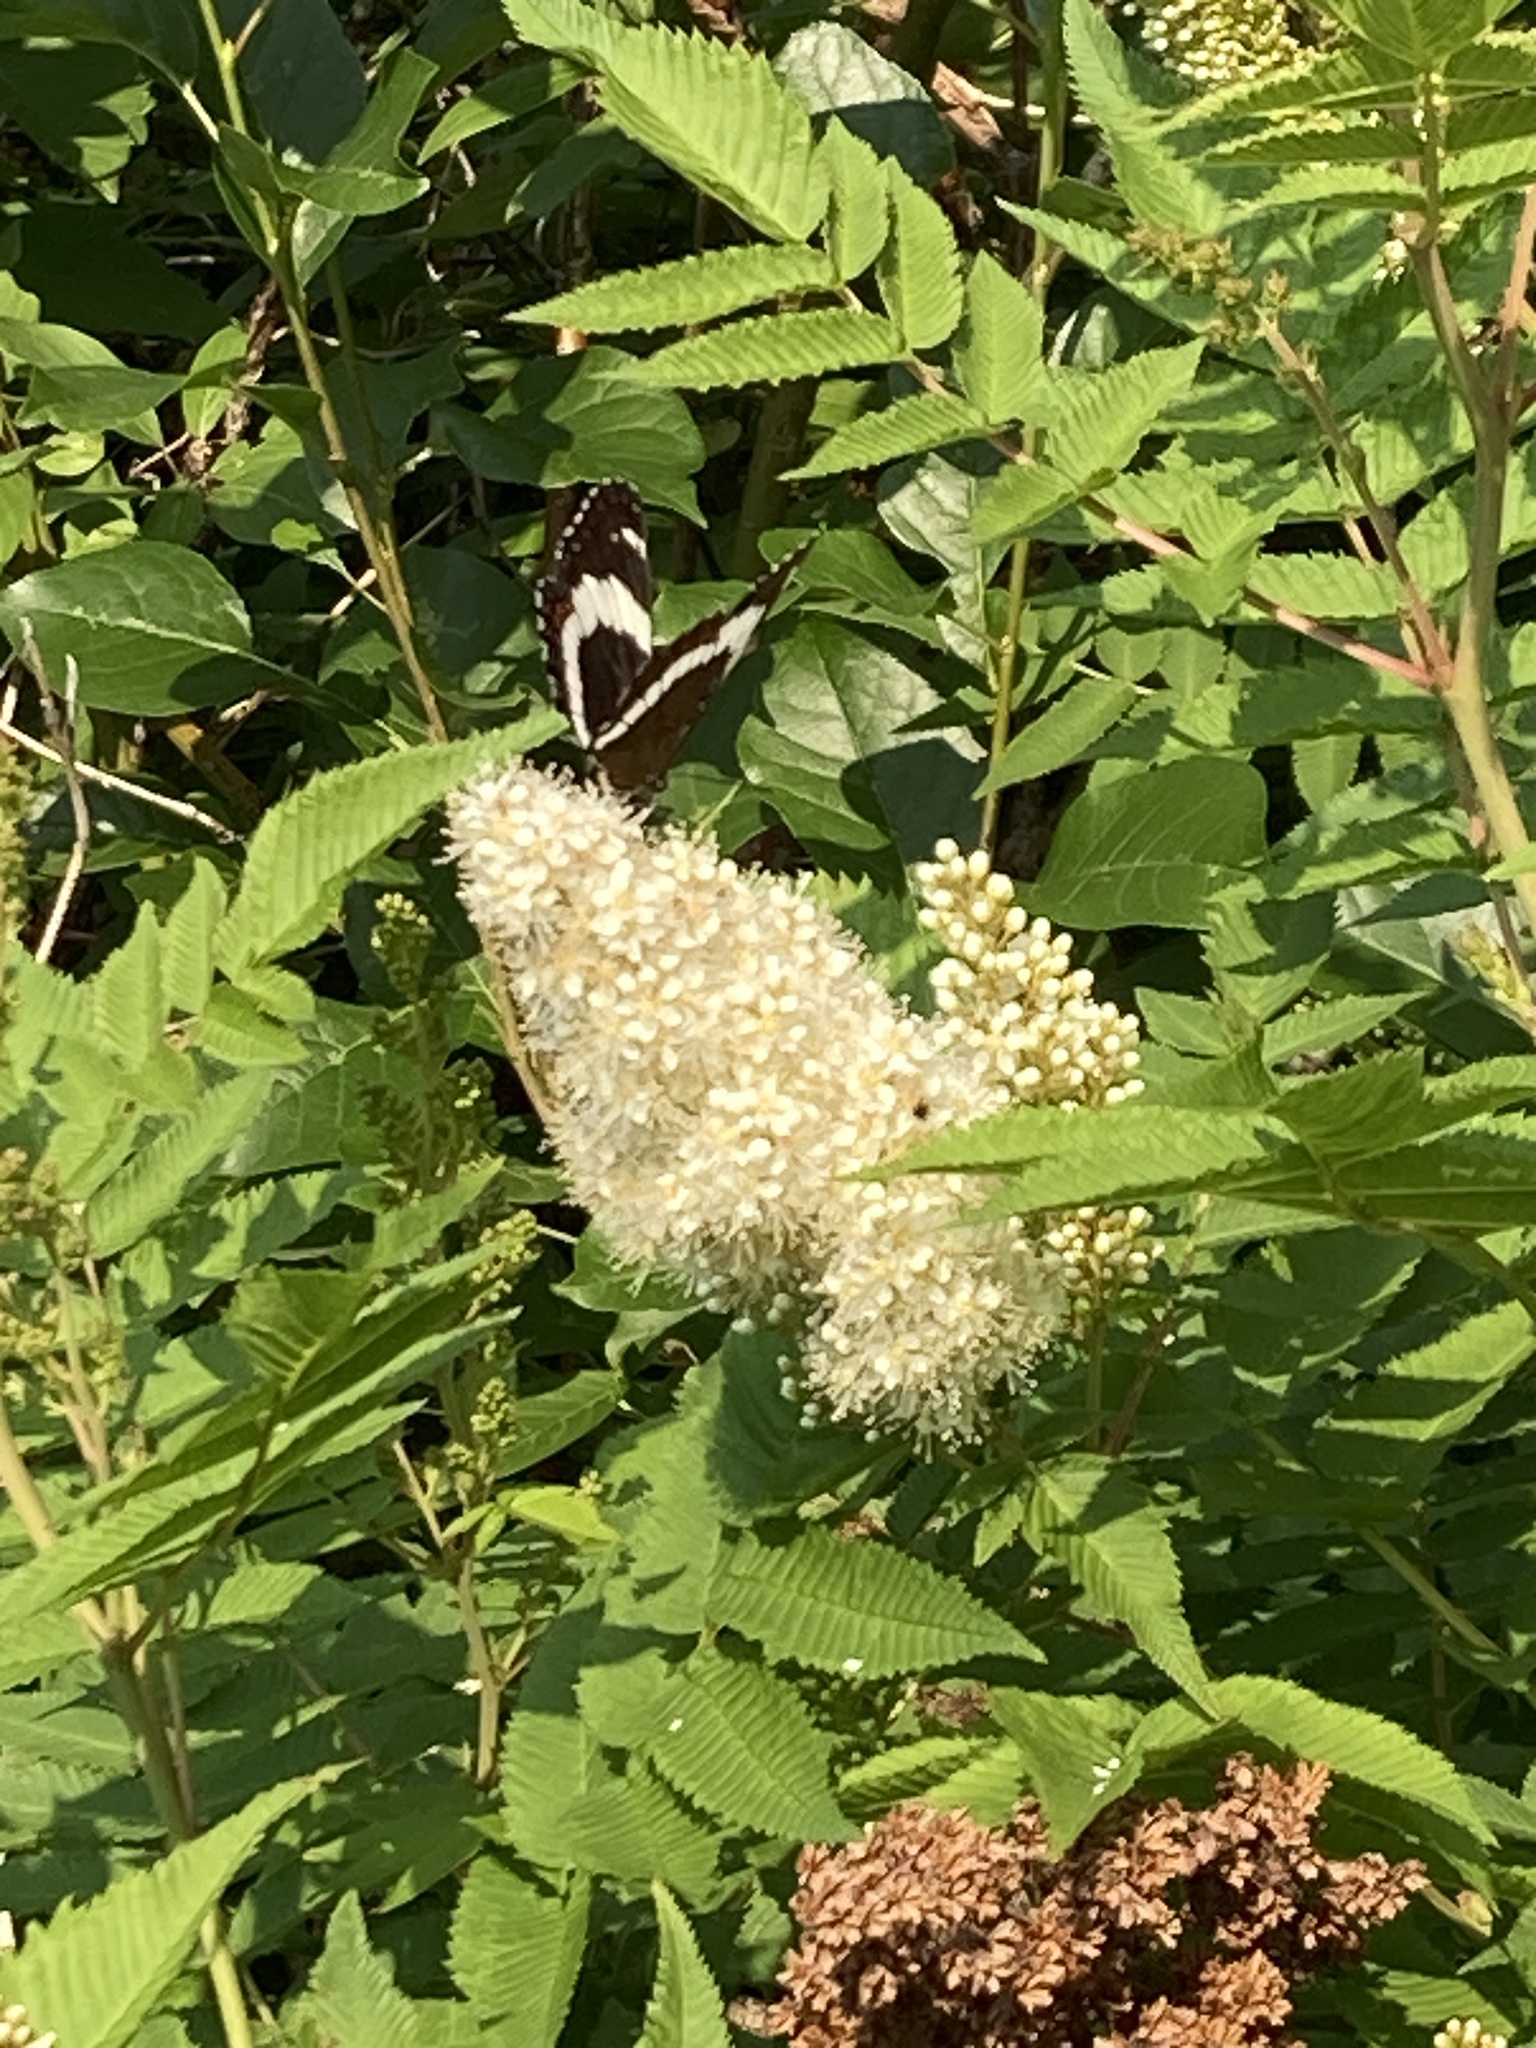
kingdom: Animalia
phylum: Arthropoda
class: Insecta
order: Lepidoptera
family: Nymphalidae
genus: Limenitis
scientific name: Limenitis arthemis
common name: Red-spotted admiral
